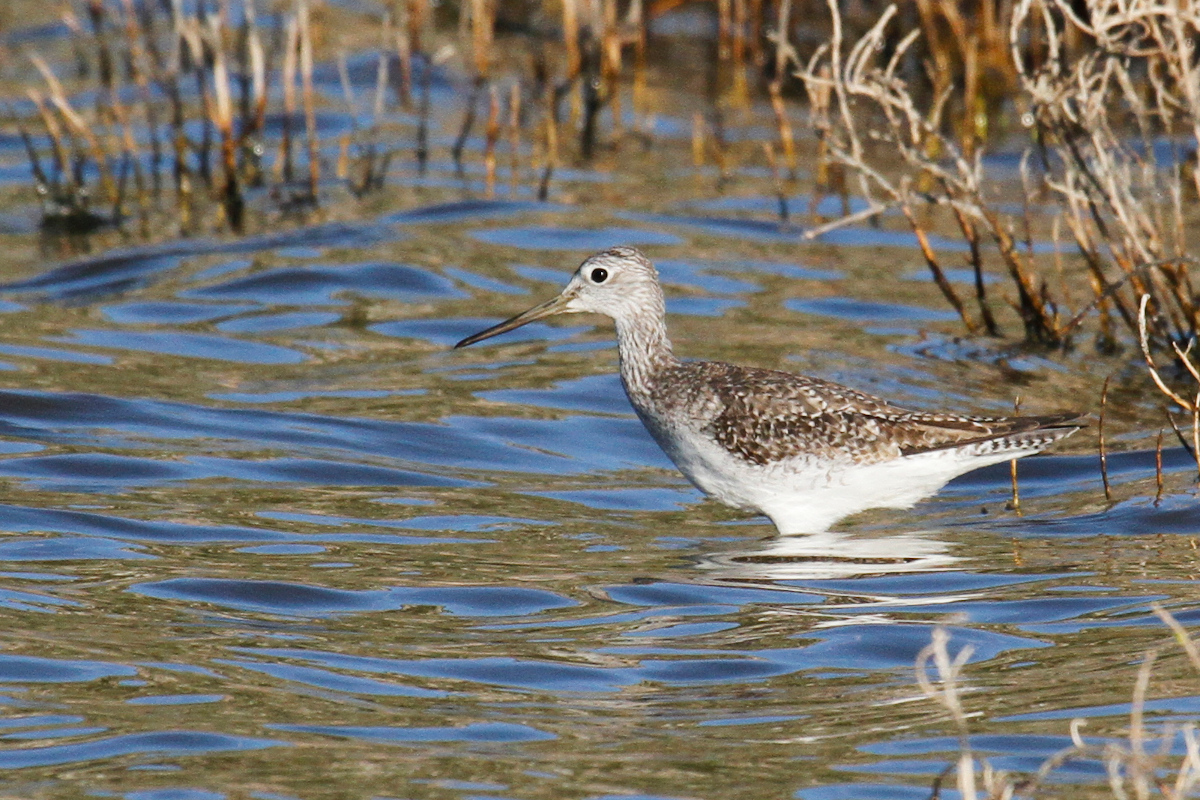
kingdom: Animalia
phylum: Chordata
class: Aves
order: Charadriiformes
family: Scolopacidae
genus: Tringa
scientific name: Tringa melanoleuca
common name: Greater yellowlegs
